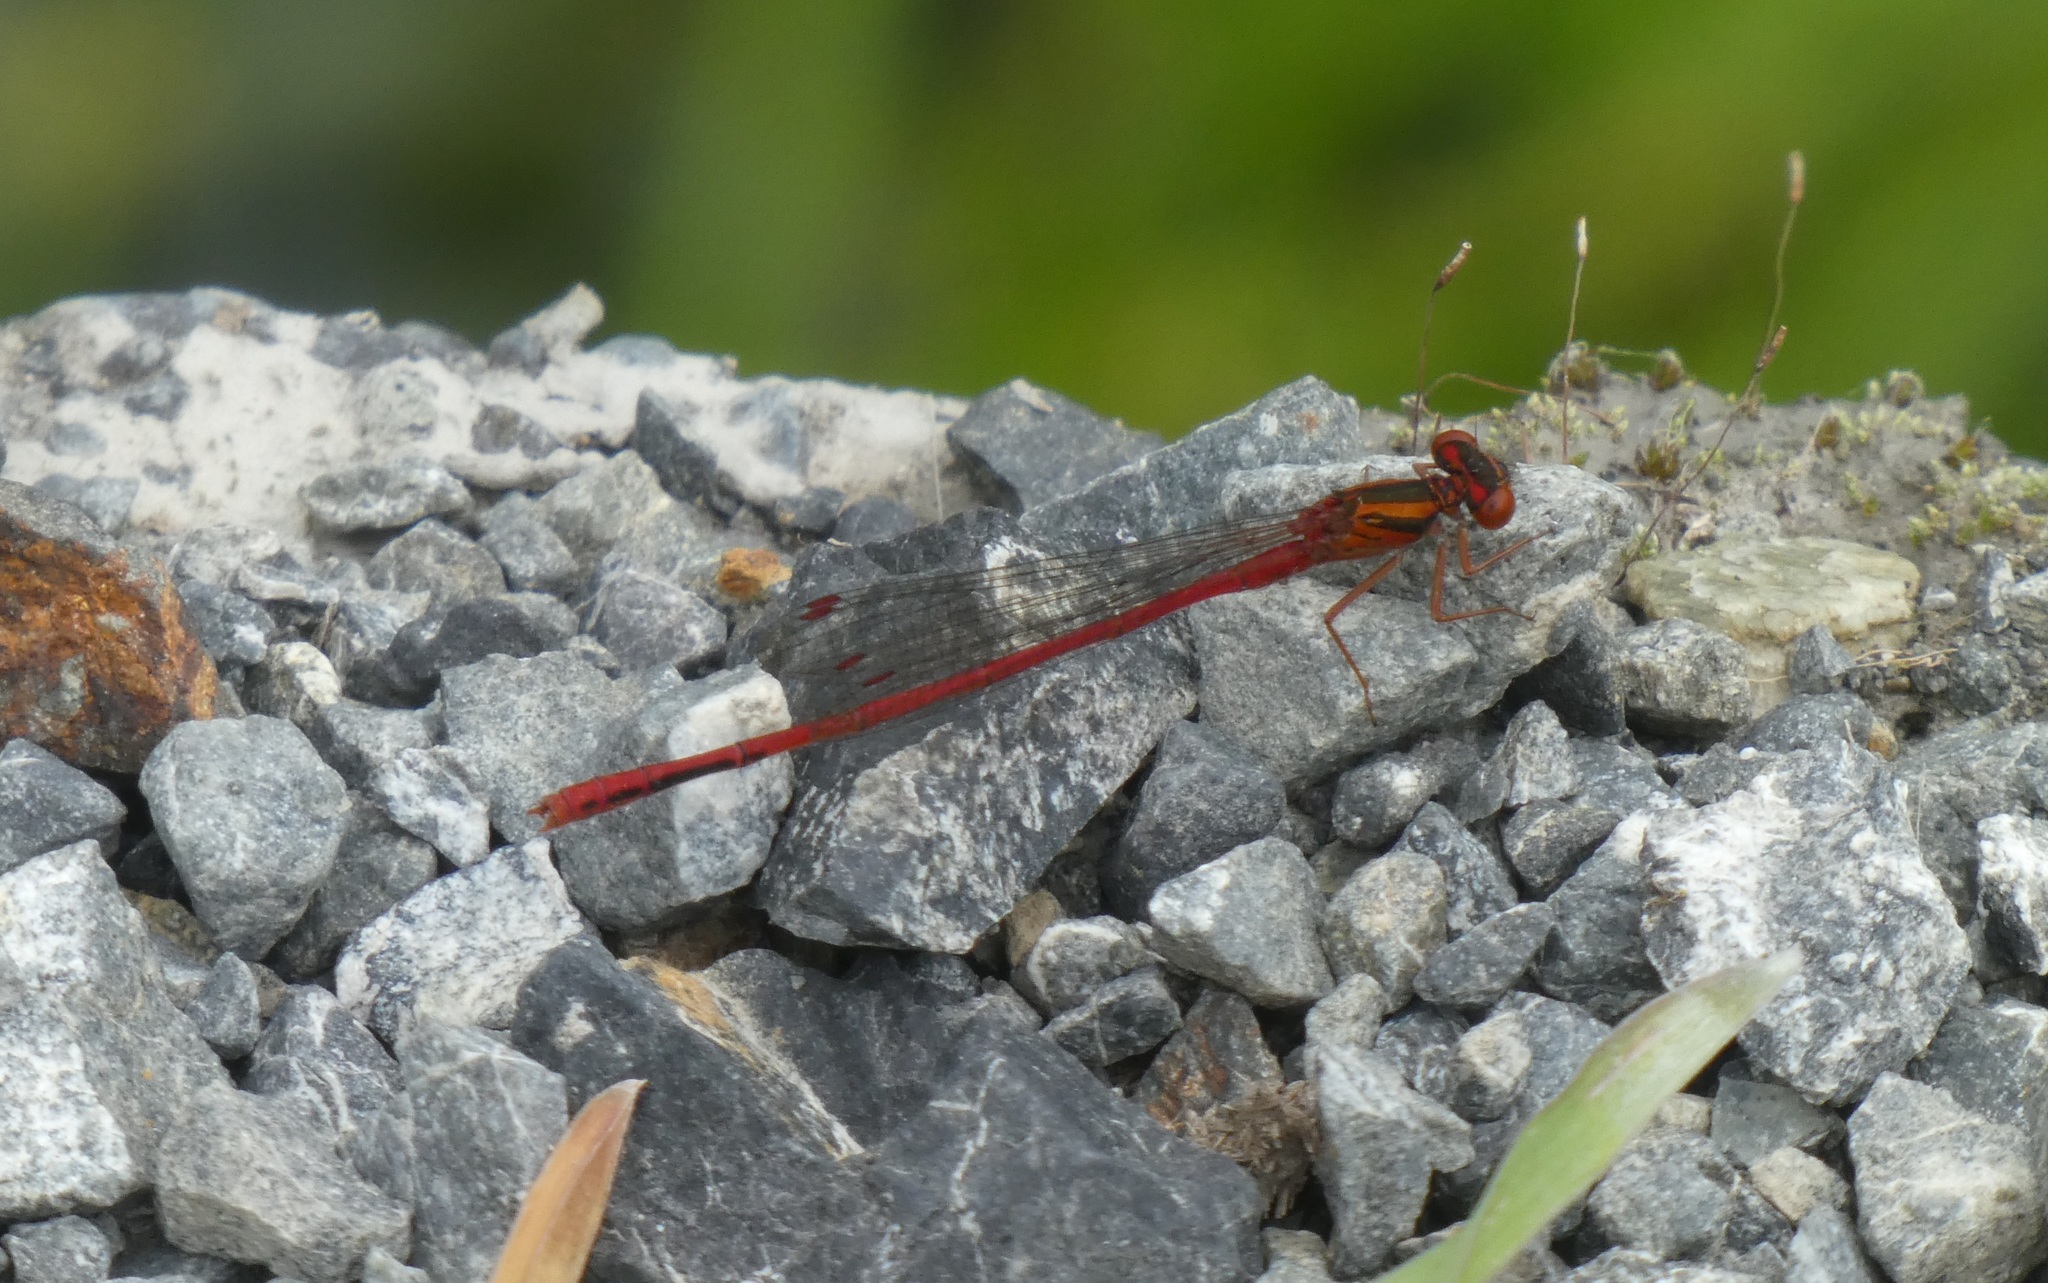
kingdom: Animalia
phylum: Arthropoda
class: Insecta
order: Odonata
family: Coenagrionidae
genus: Xanthocnemis
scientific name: Xanthocnemis zealandica
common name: Common redcoat damselfly
